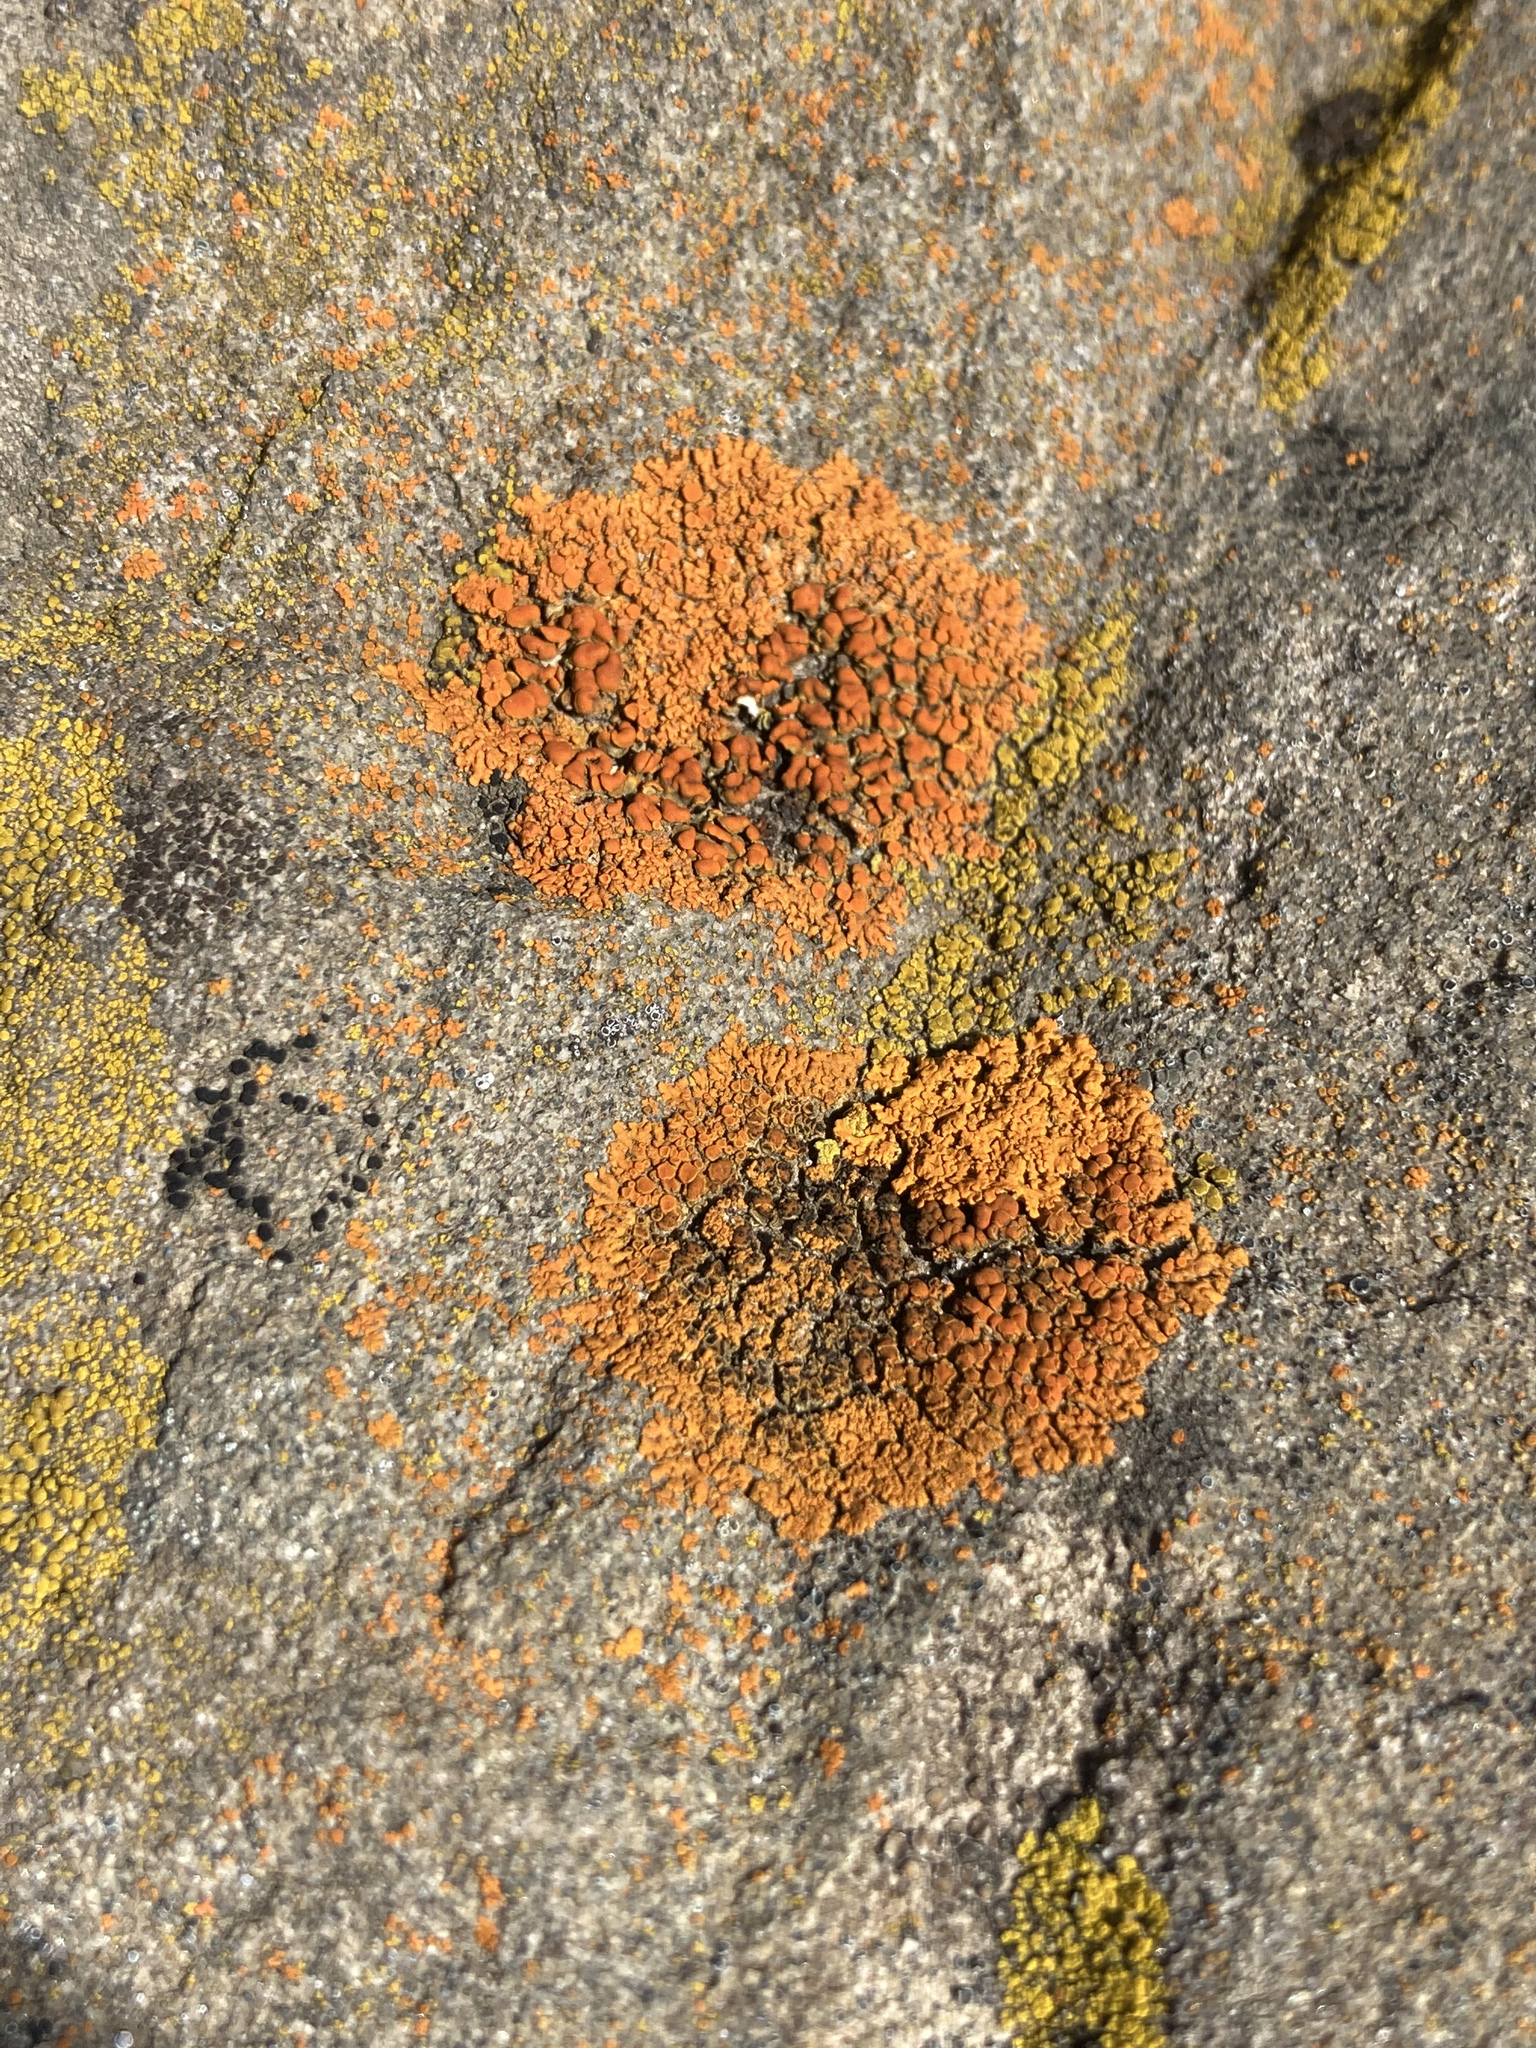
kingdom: Fungi
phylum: Ascomycota
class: Lecanoromycetes
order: Teloschistales
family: Teloschistaceae
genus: Xanthoria
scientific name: Xanthoria elegans
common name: Elegant sunburst lichen
